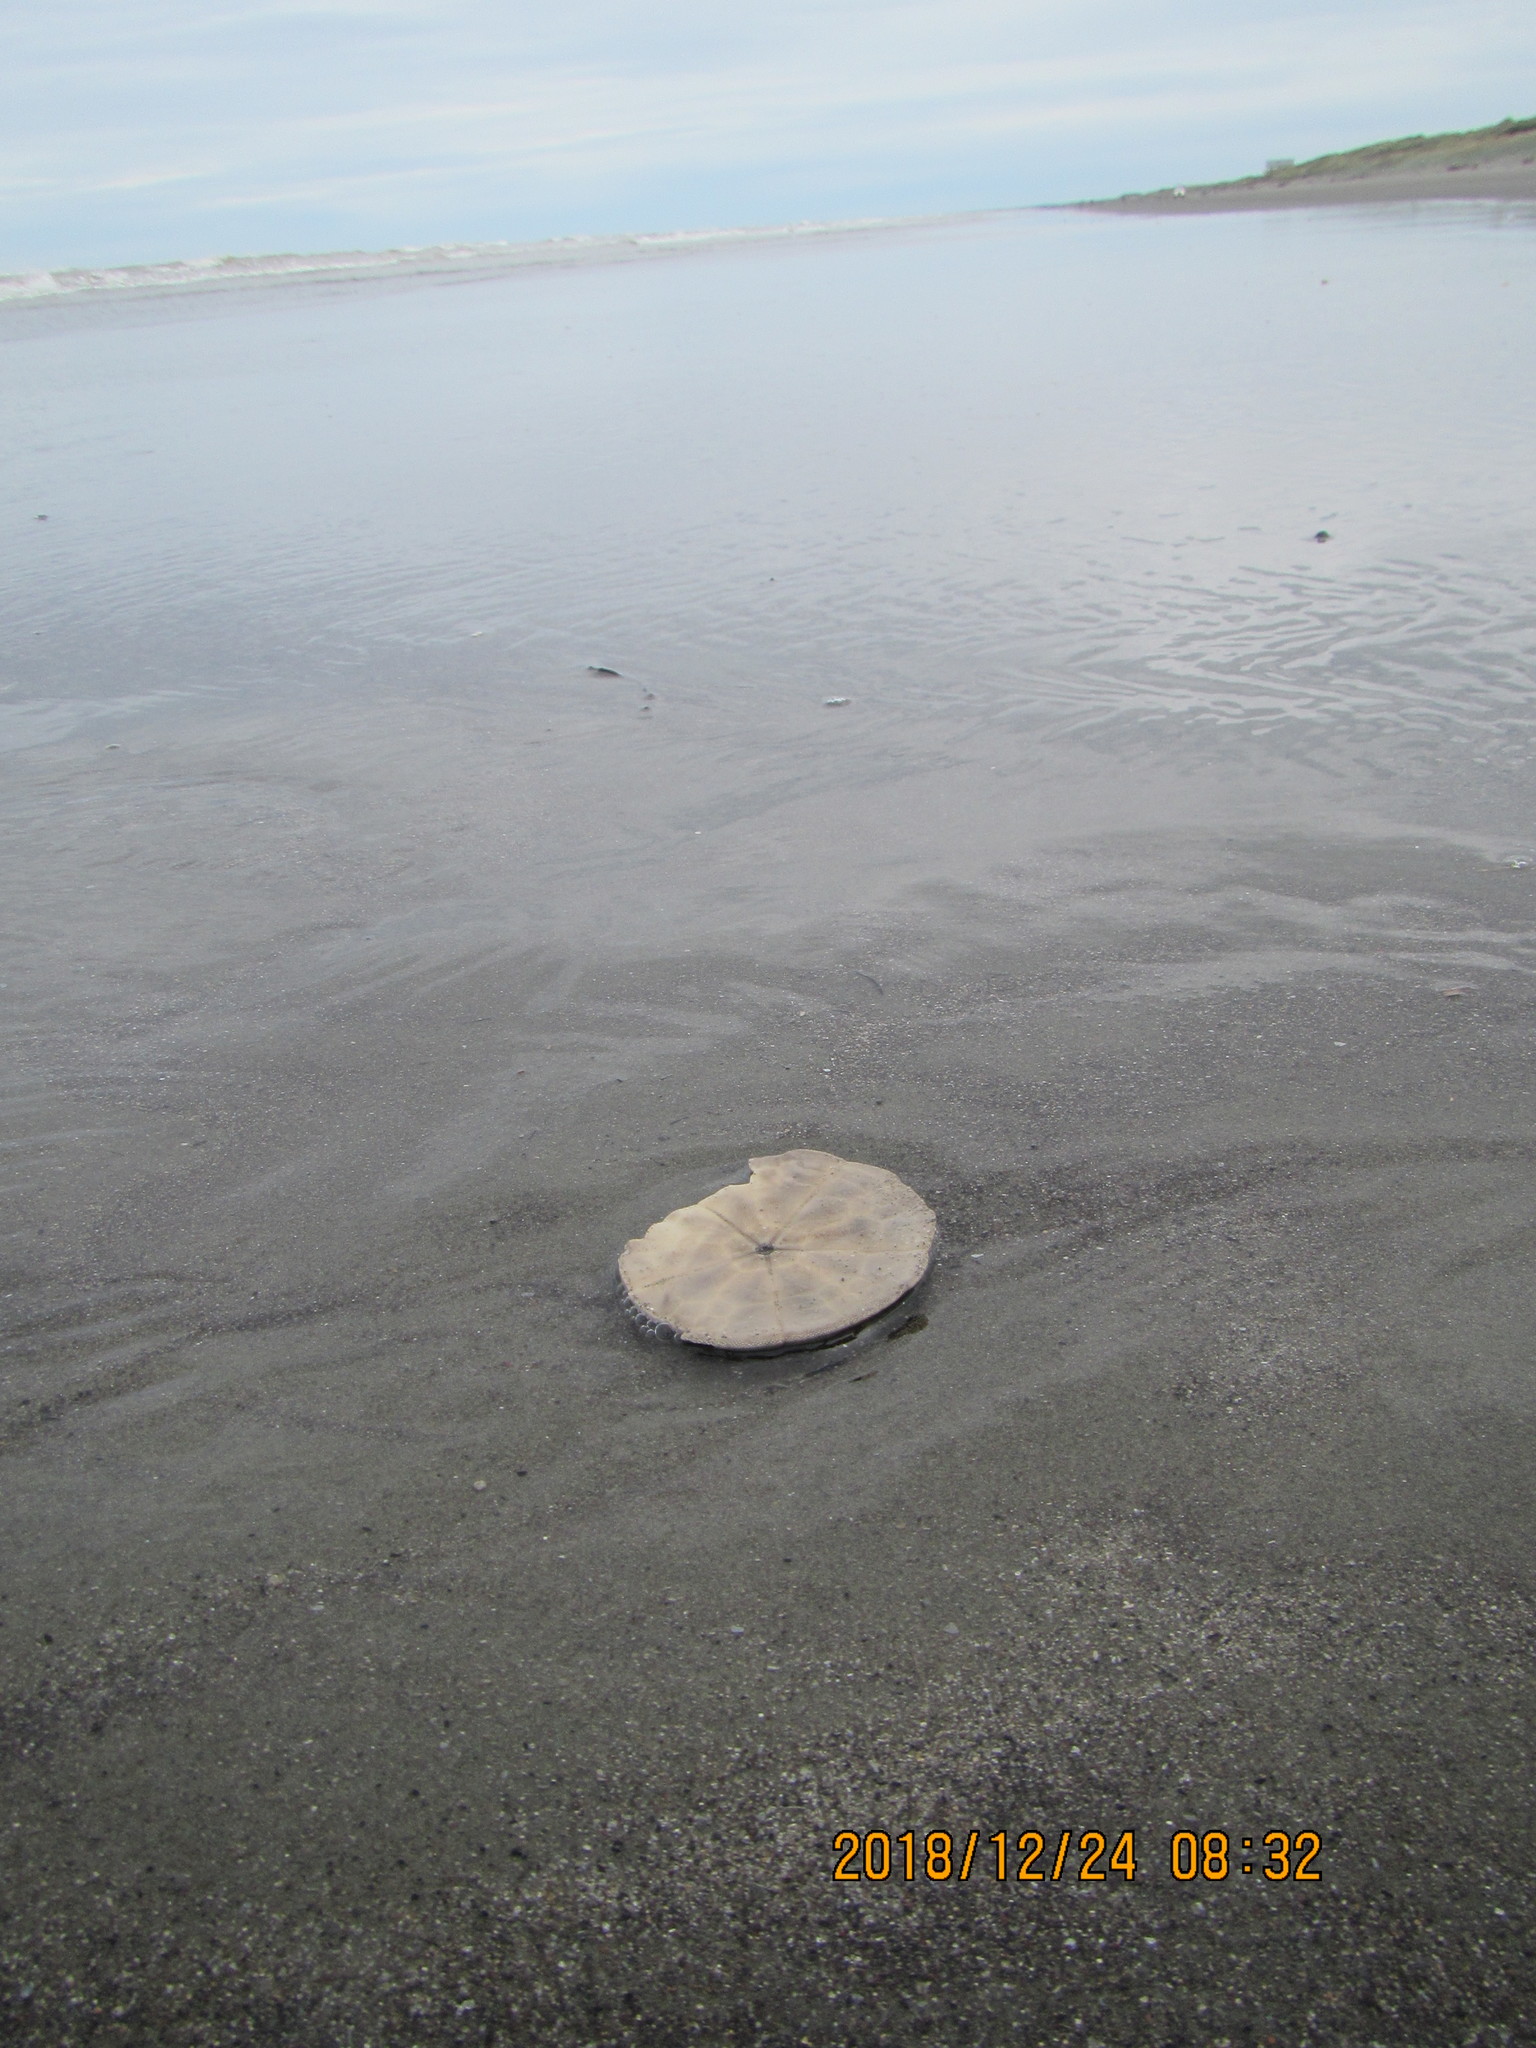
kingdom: Animalia
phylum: Echinodermata
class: Echinoidea
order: Clypeasteroida
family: Clypeasteridae
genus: Fellaster
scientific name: Fellaster zelandiae
